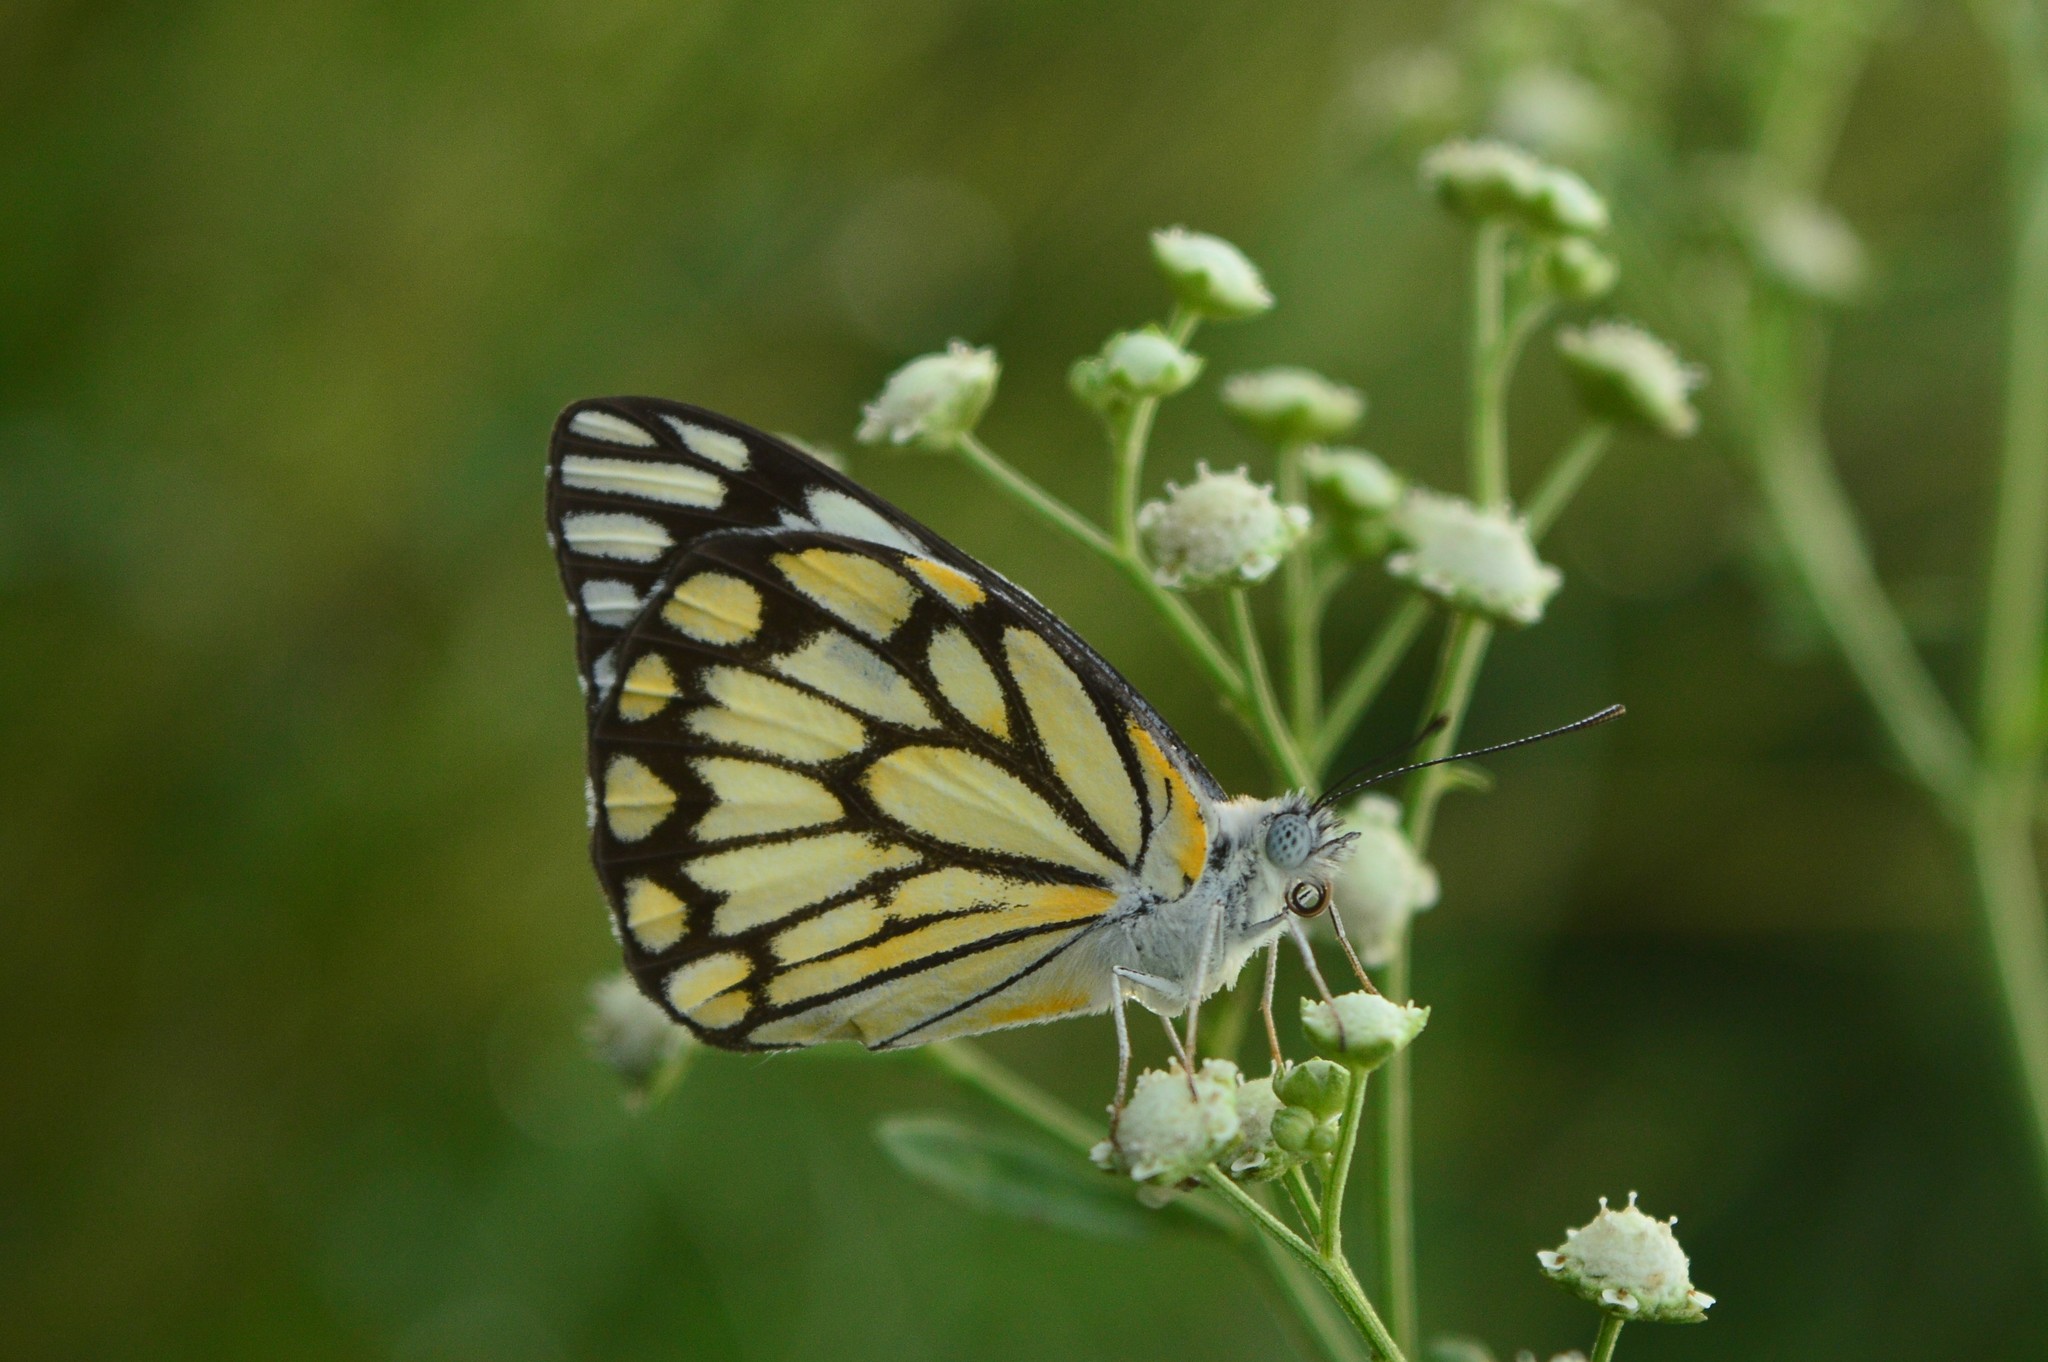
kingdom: Animalia
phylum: Arthropoda
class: Insecta
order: Lepidoptera
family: Pieridae
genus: Belenois
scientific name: Belenois aurota
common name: Brown-veined white
